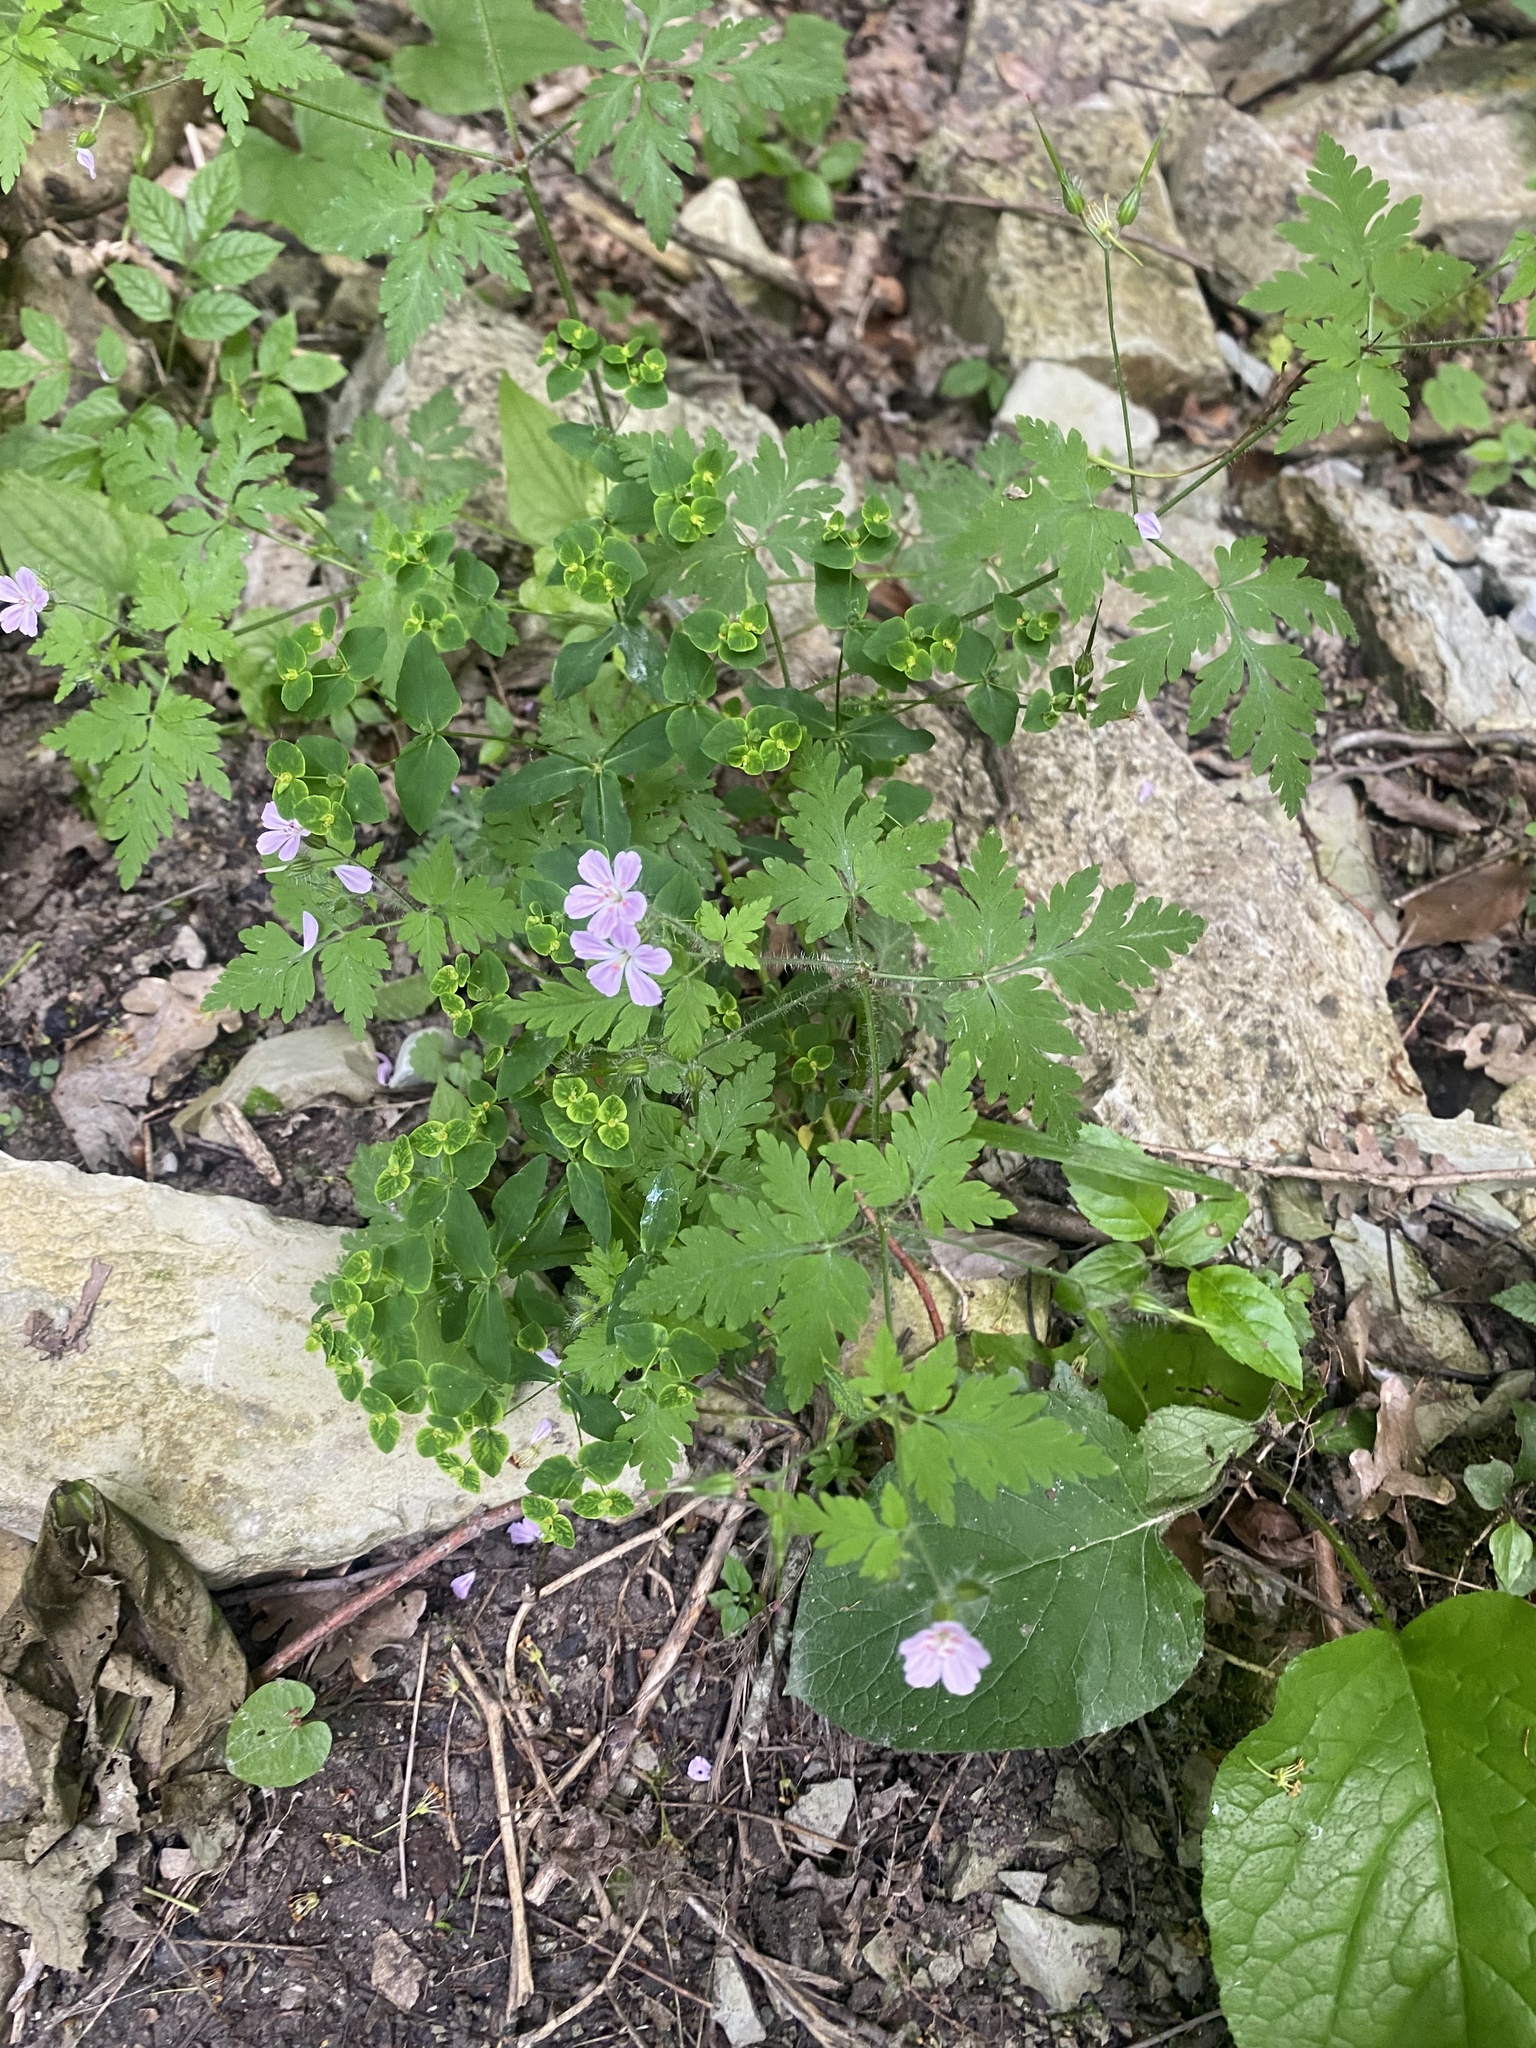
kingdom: Plantae
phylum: Tracheophyta
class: Magnoliopsida
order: Geraniales
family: Geraniaceae
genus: Geranium
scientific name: Geranium robertianum
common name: Herb-robert
